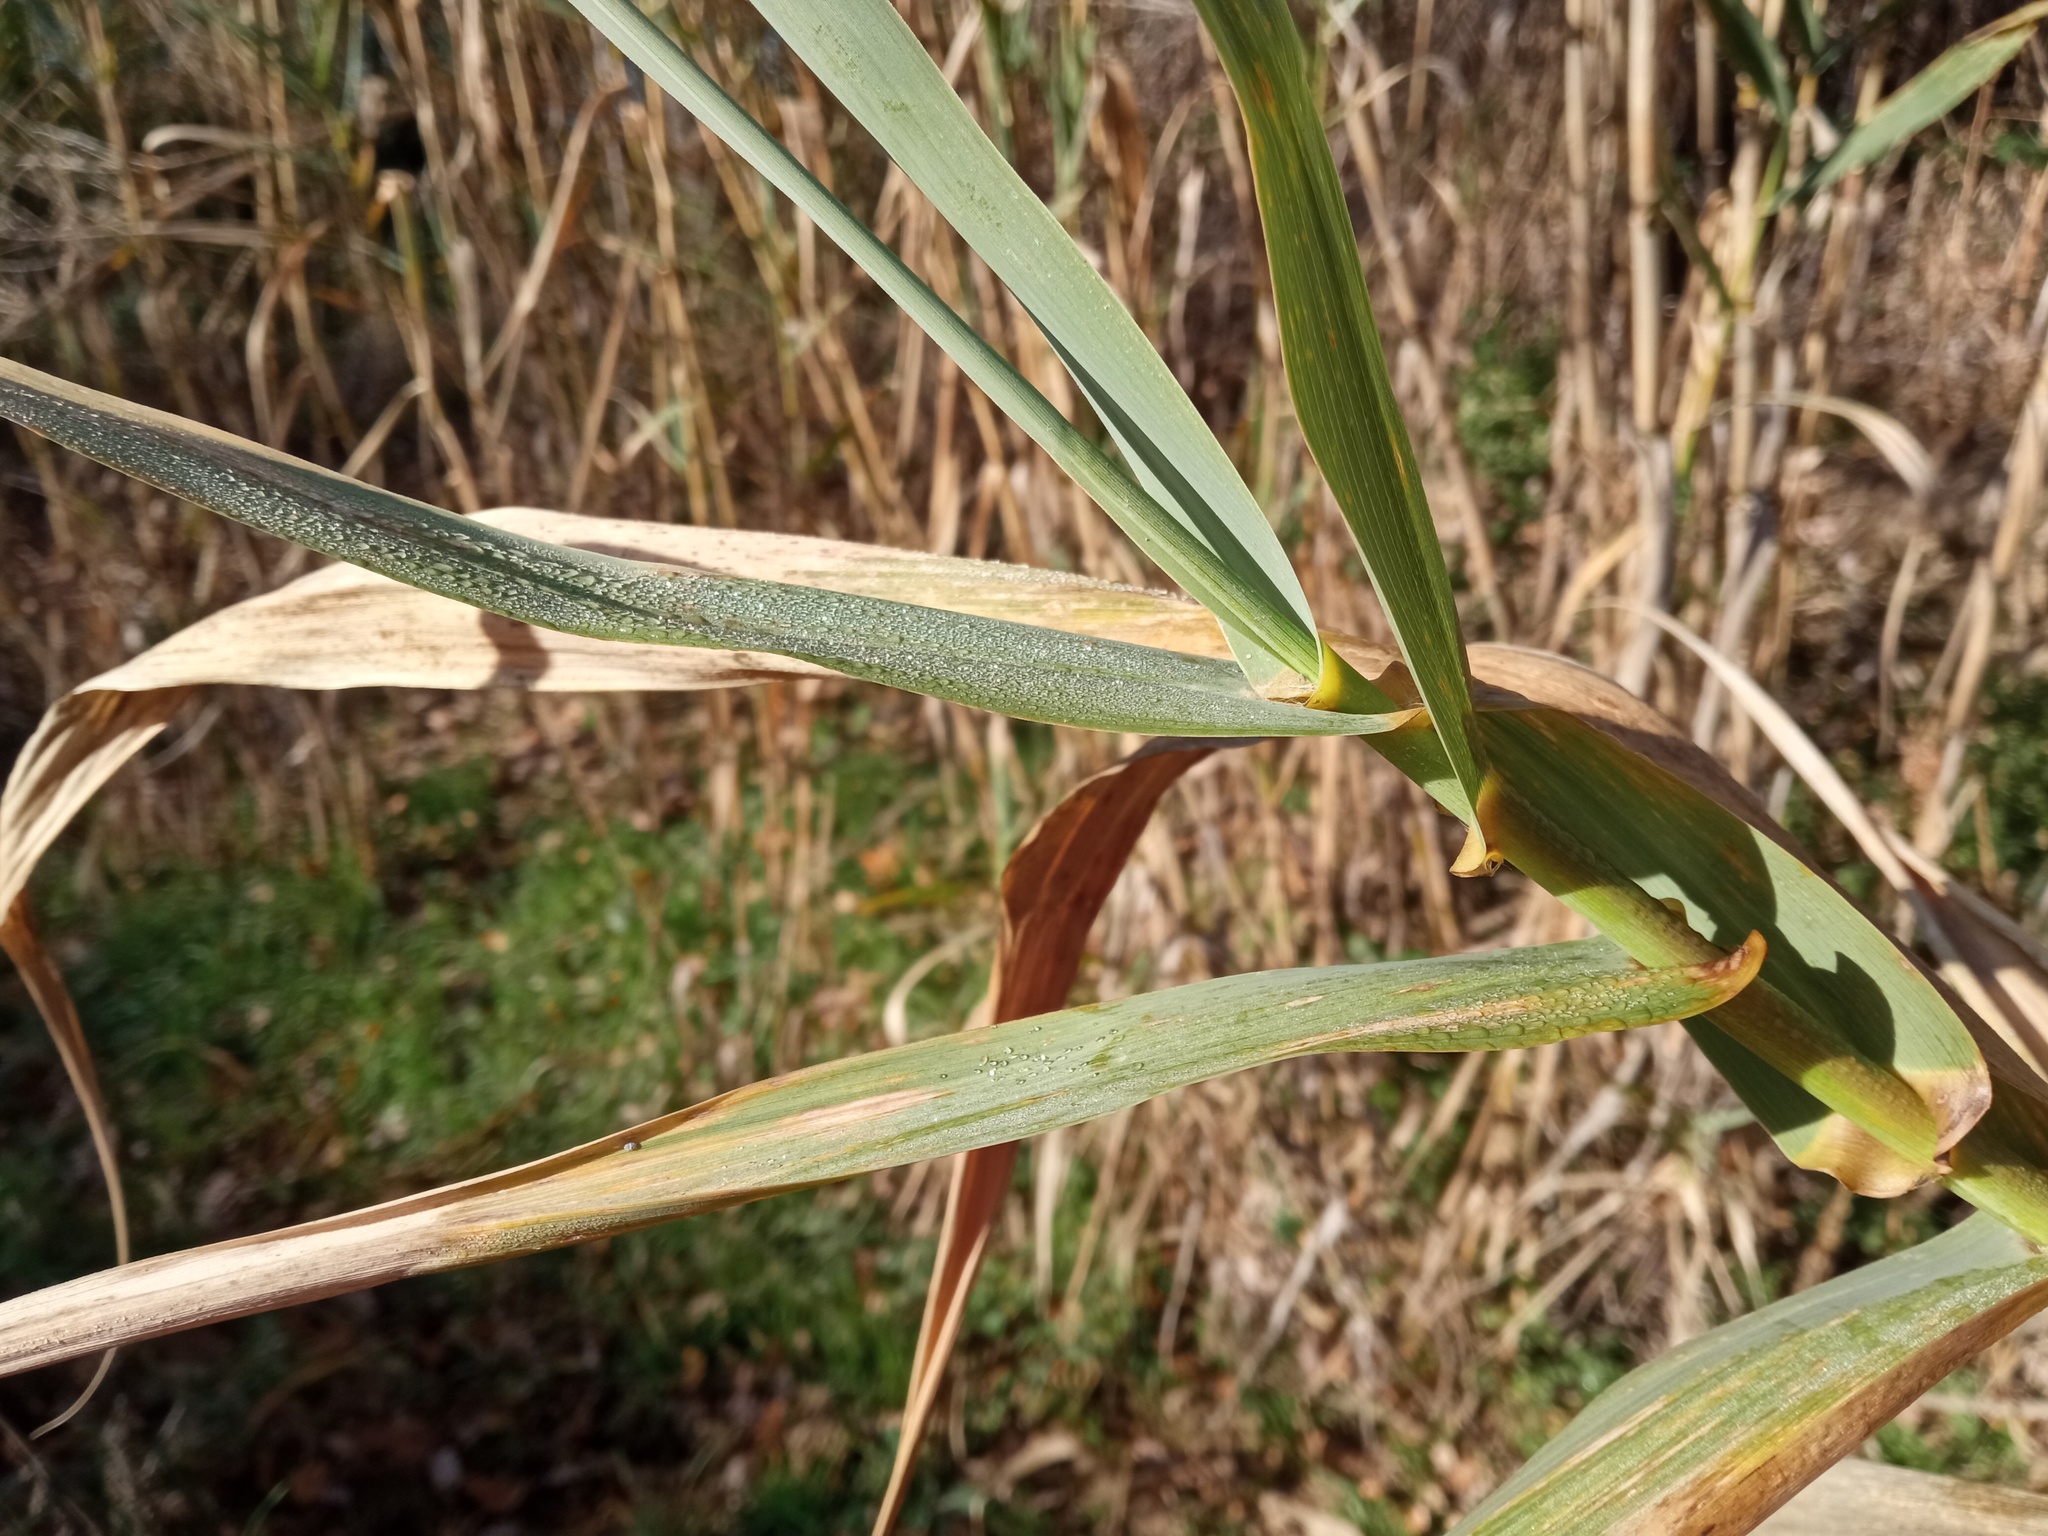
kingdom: Plantae
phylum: Tracheophyta
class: Liliopsida
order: Poales
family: Poaceae
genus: Arundo
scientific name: Arundo donax
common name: Giant reed
